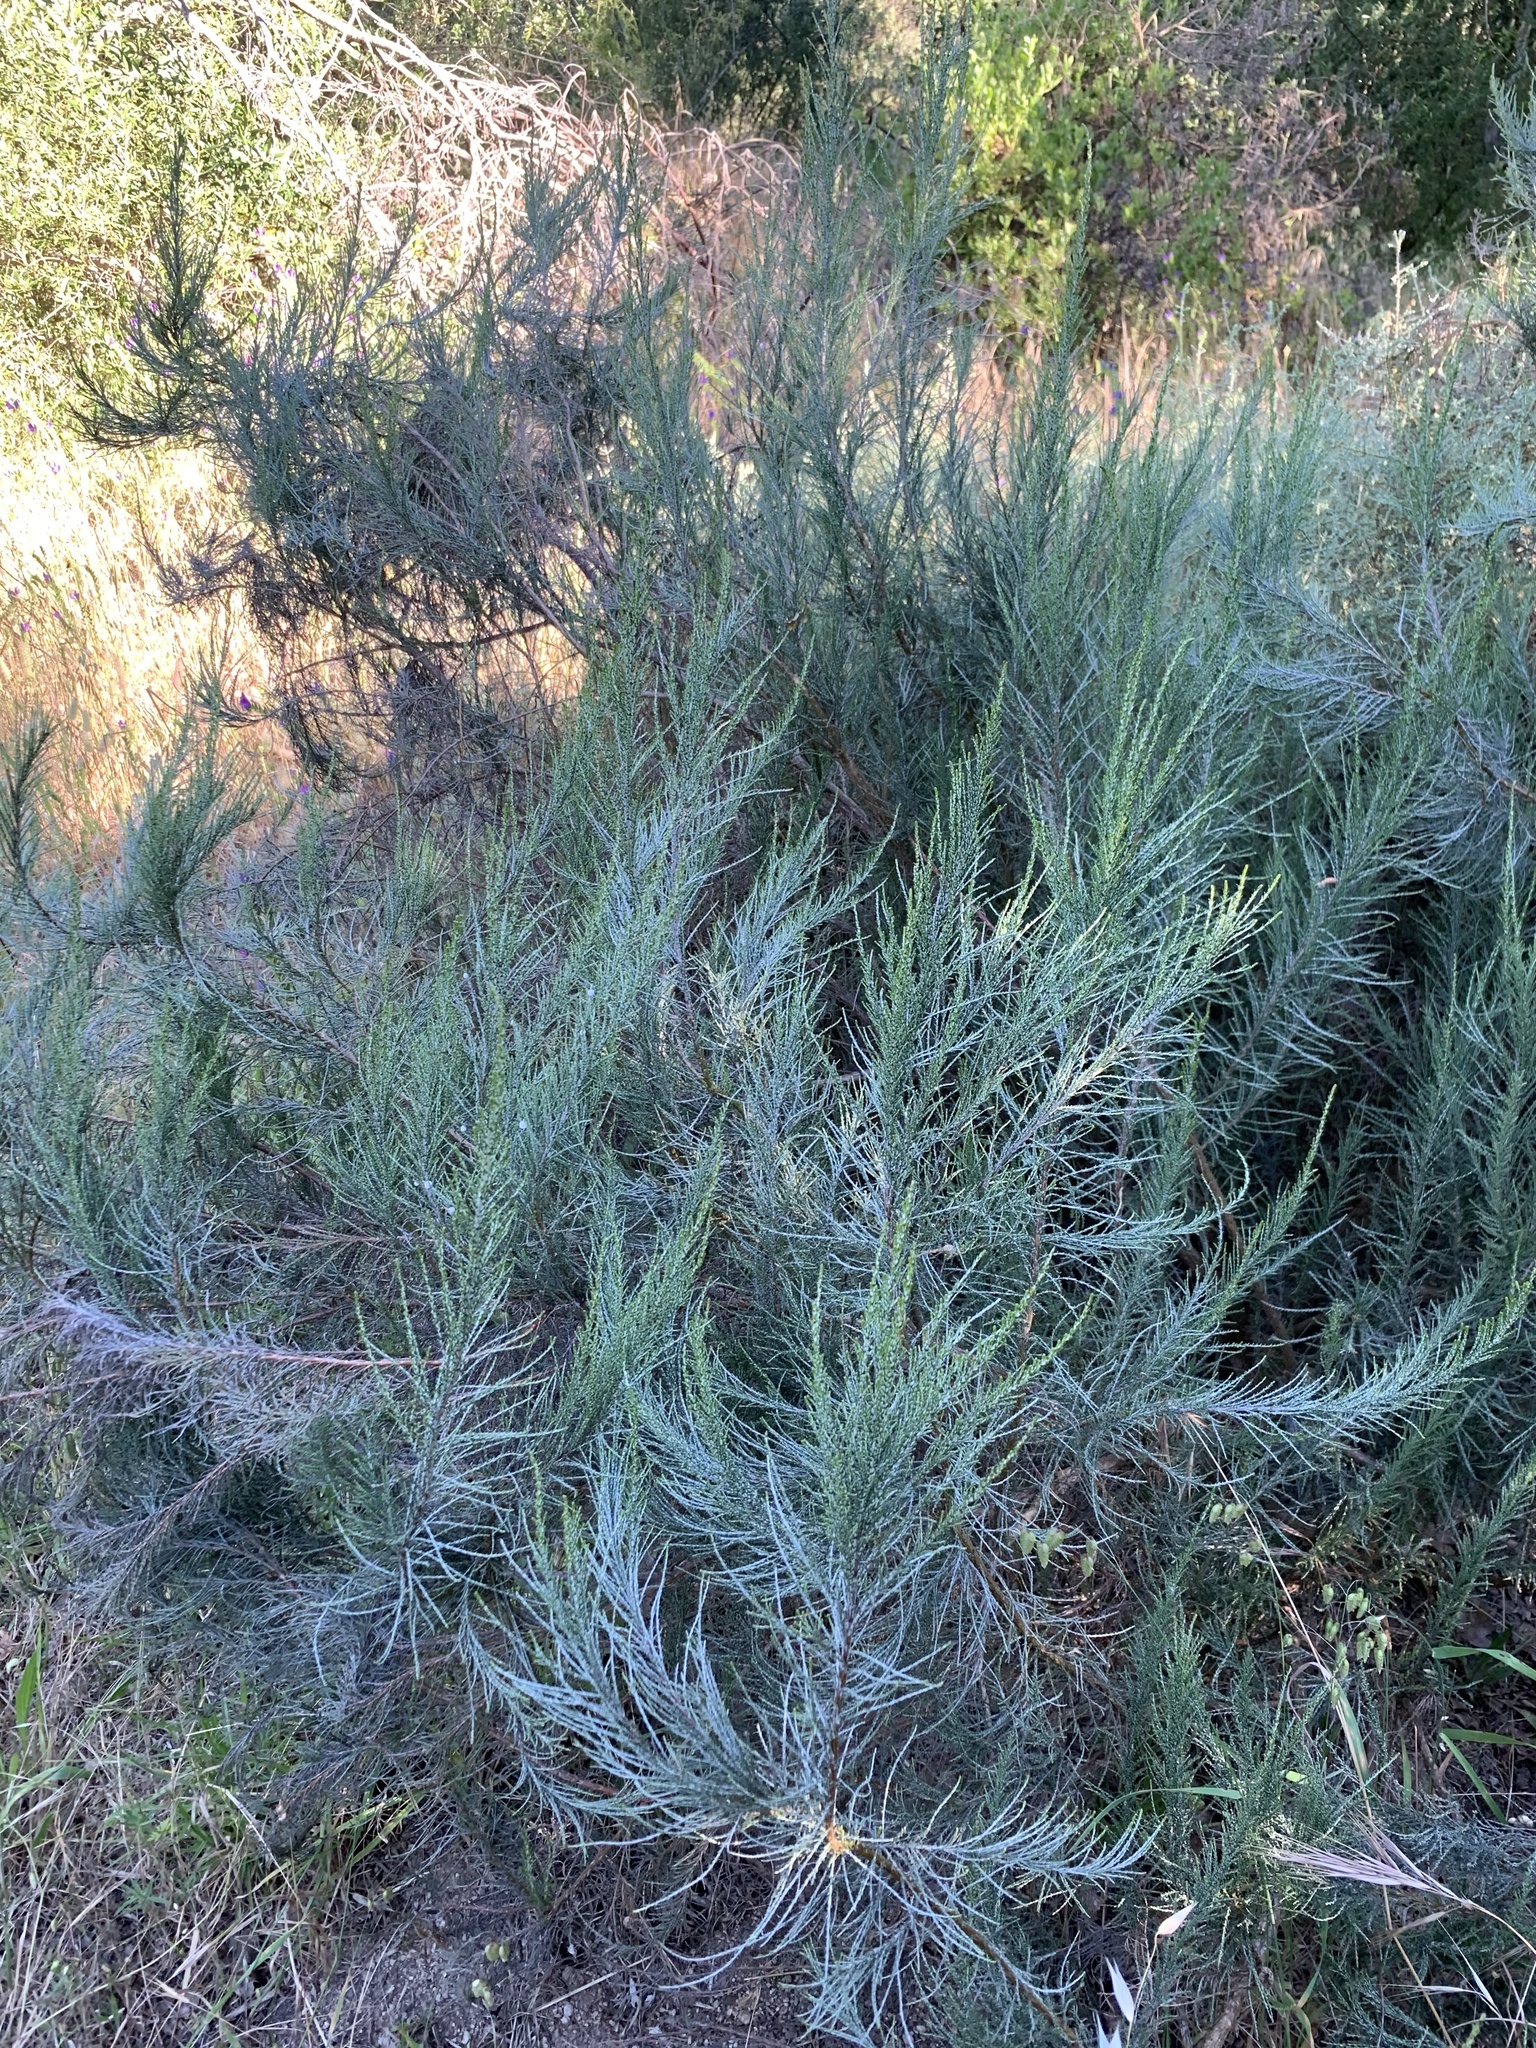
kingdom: Plantae
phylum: Tracheophyta
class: Magnoliopsida
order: Asterales
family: Asteraceae
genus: Dicerothamnus
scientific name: Dicerothamnus rhinocerotis
